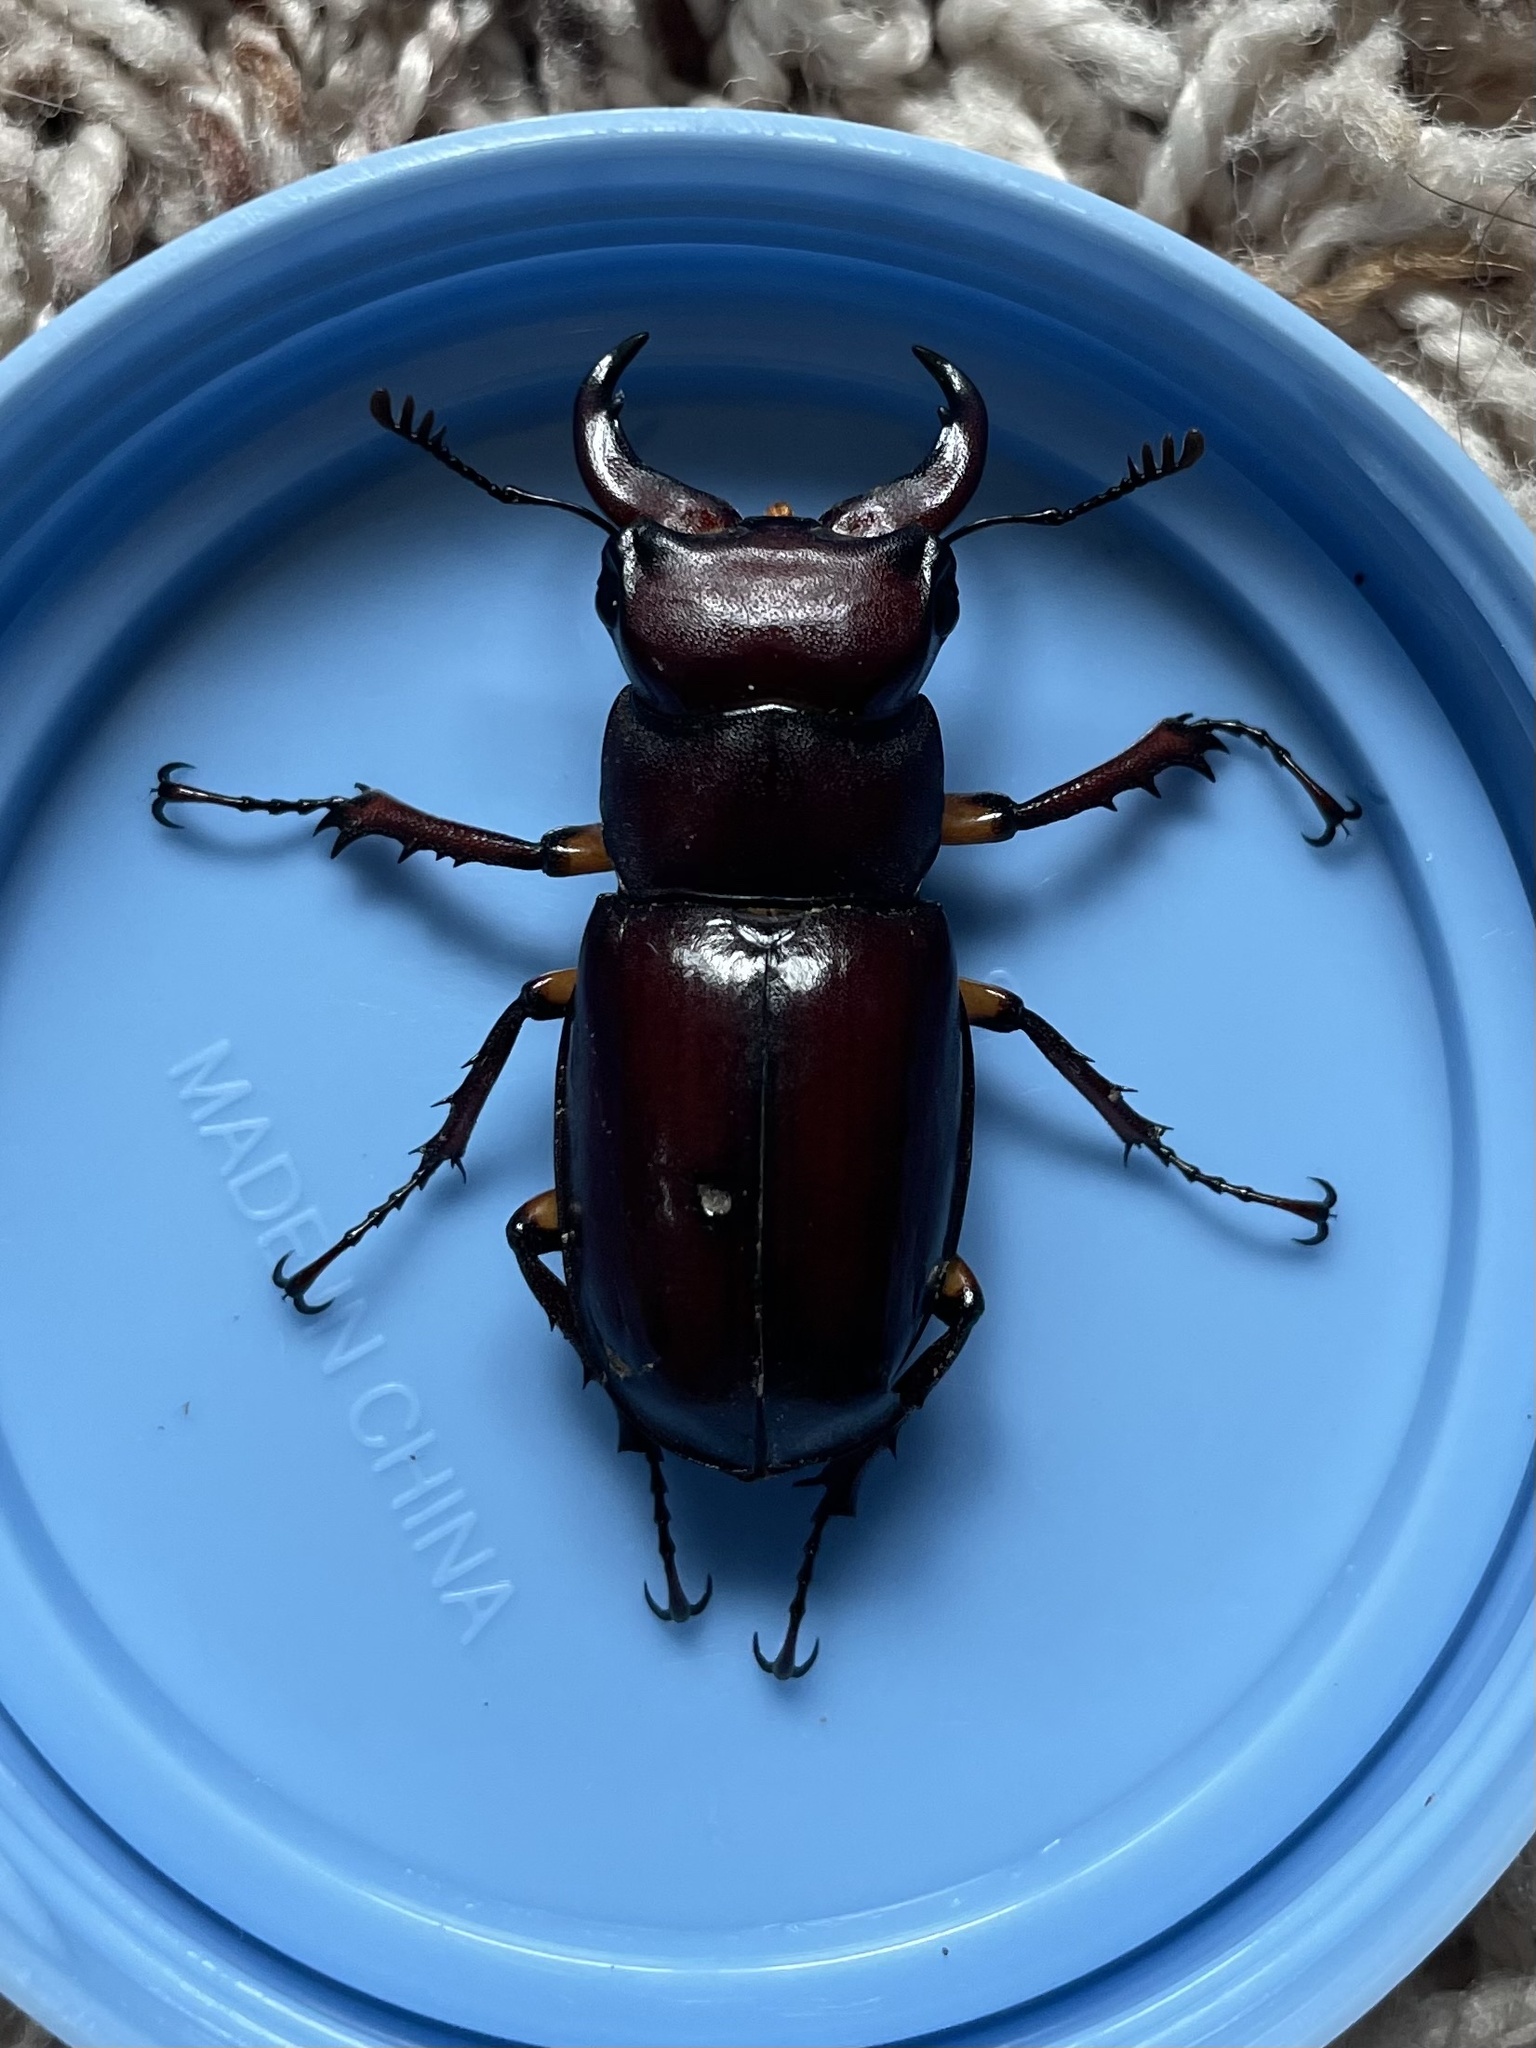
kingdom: Animalia
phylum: Arthropoda
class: Insecta
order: Coleoptera
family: Lucanidae
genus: Lucanus
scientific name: Lucanus capreolus
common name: Stag beetle
